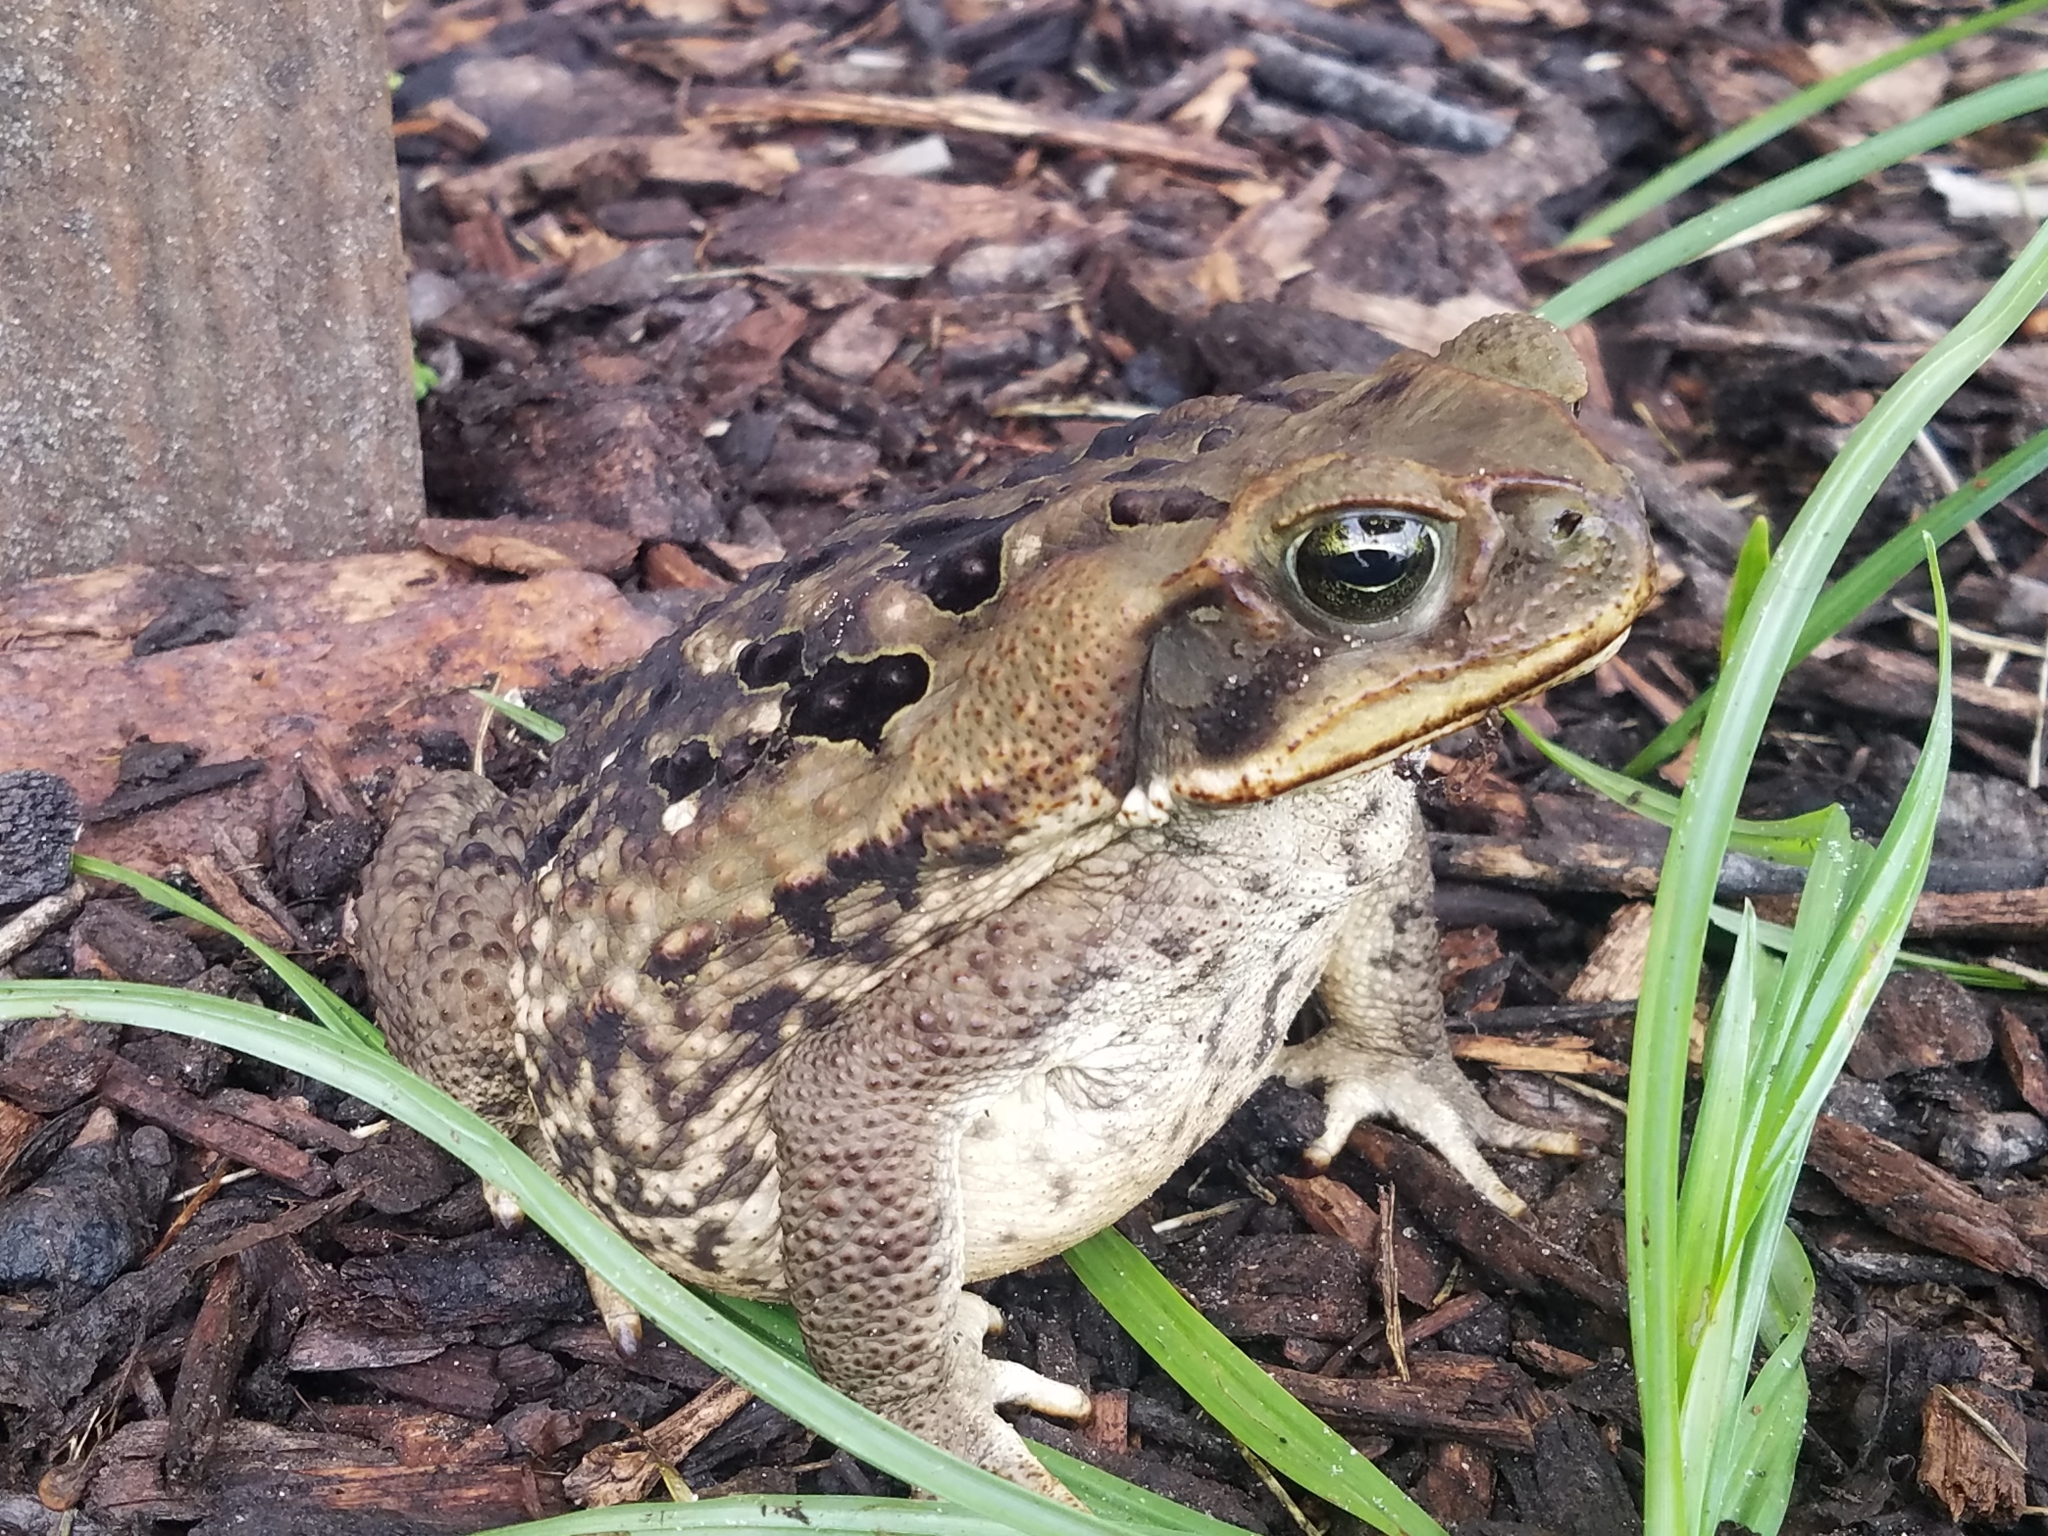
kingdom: Animalia
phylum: Chordata
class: Amphibia
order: Anura
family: Bufonidae
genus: Rhinella
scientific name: Rhinella marina
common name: Cane toad
